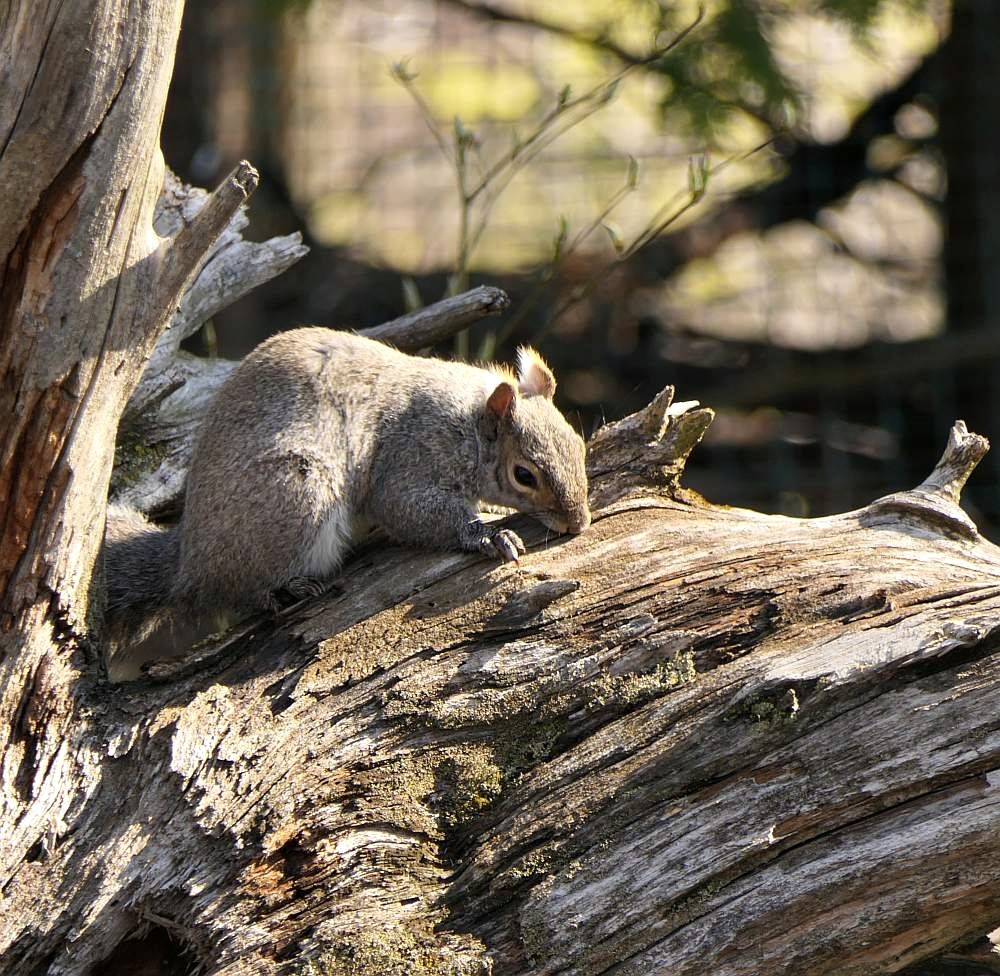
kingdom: Animalia
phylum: Chordata
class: Mammalia
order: Rodentia
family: Sciuridae
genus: Sciurus
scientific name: Sciurus carolinensis
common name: Eastern gray squirrel
